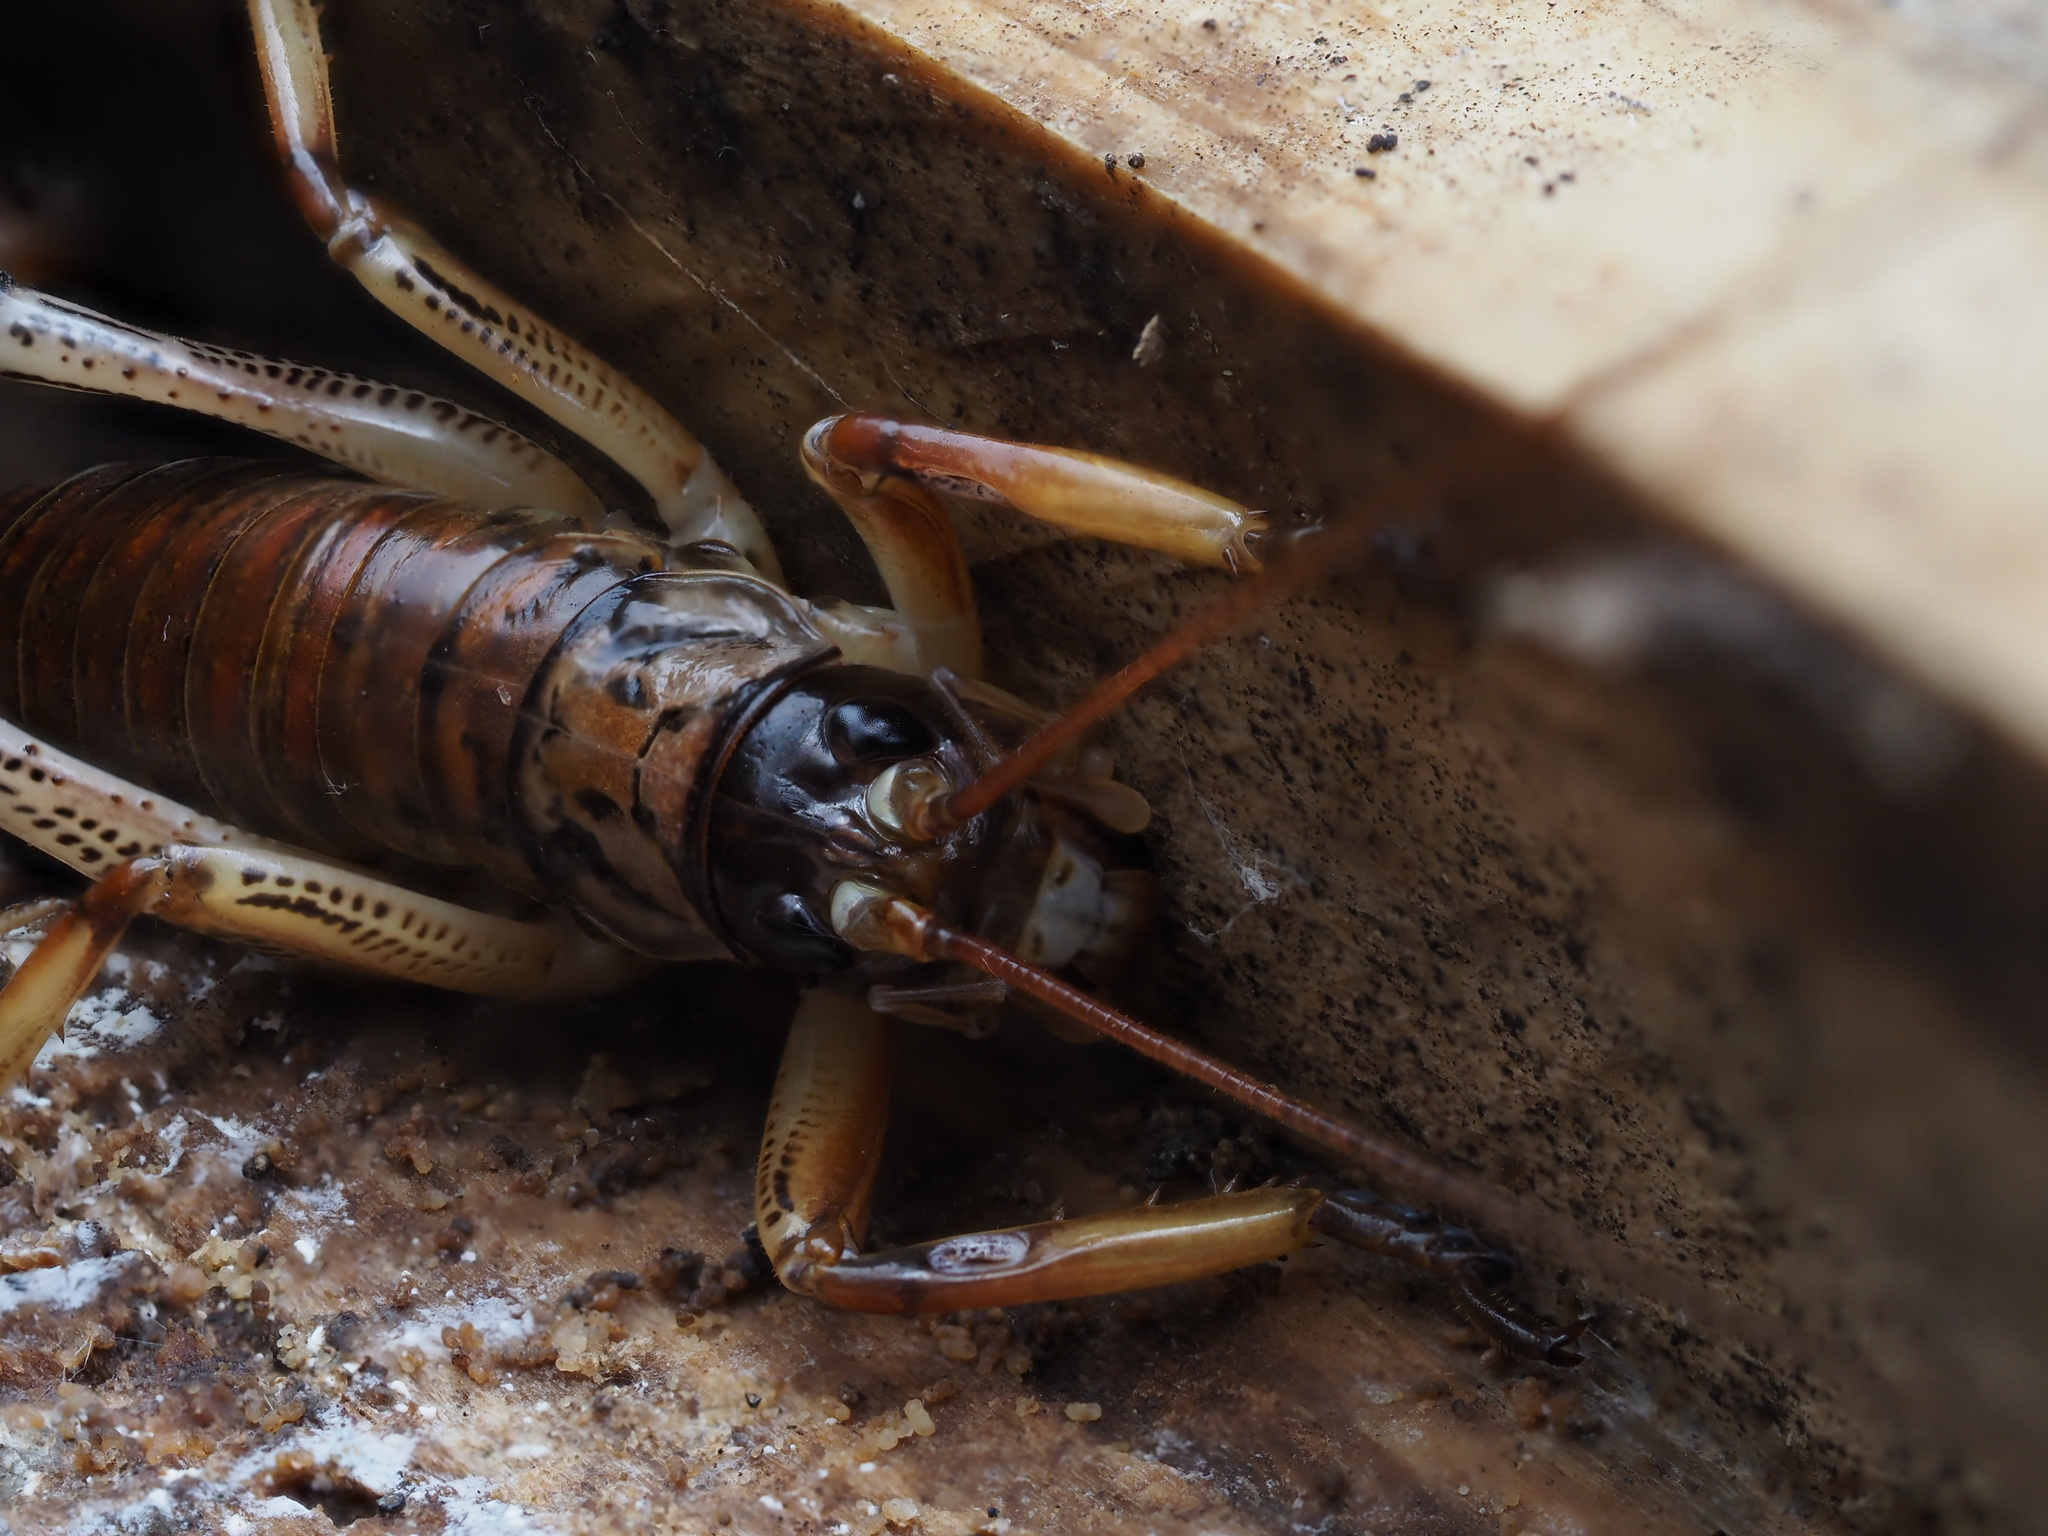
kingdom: Animalia
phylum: Arthropoda
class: Insecta
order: Orthoptera
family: Anostostomatidae
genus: Hemideina
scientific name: Hemideina thoracica
